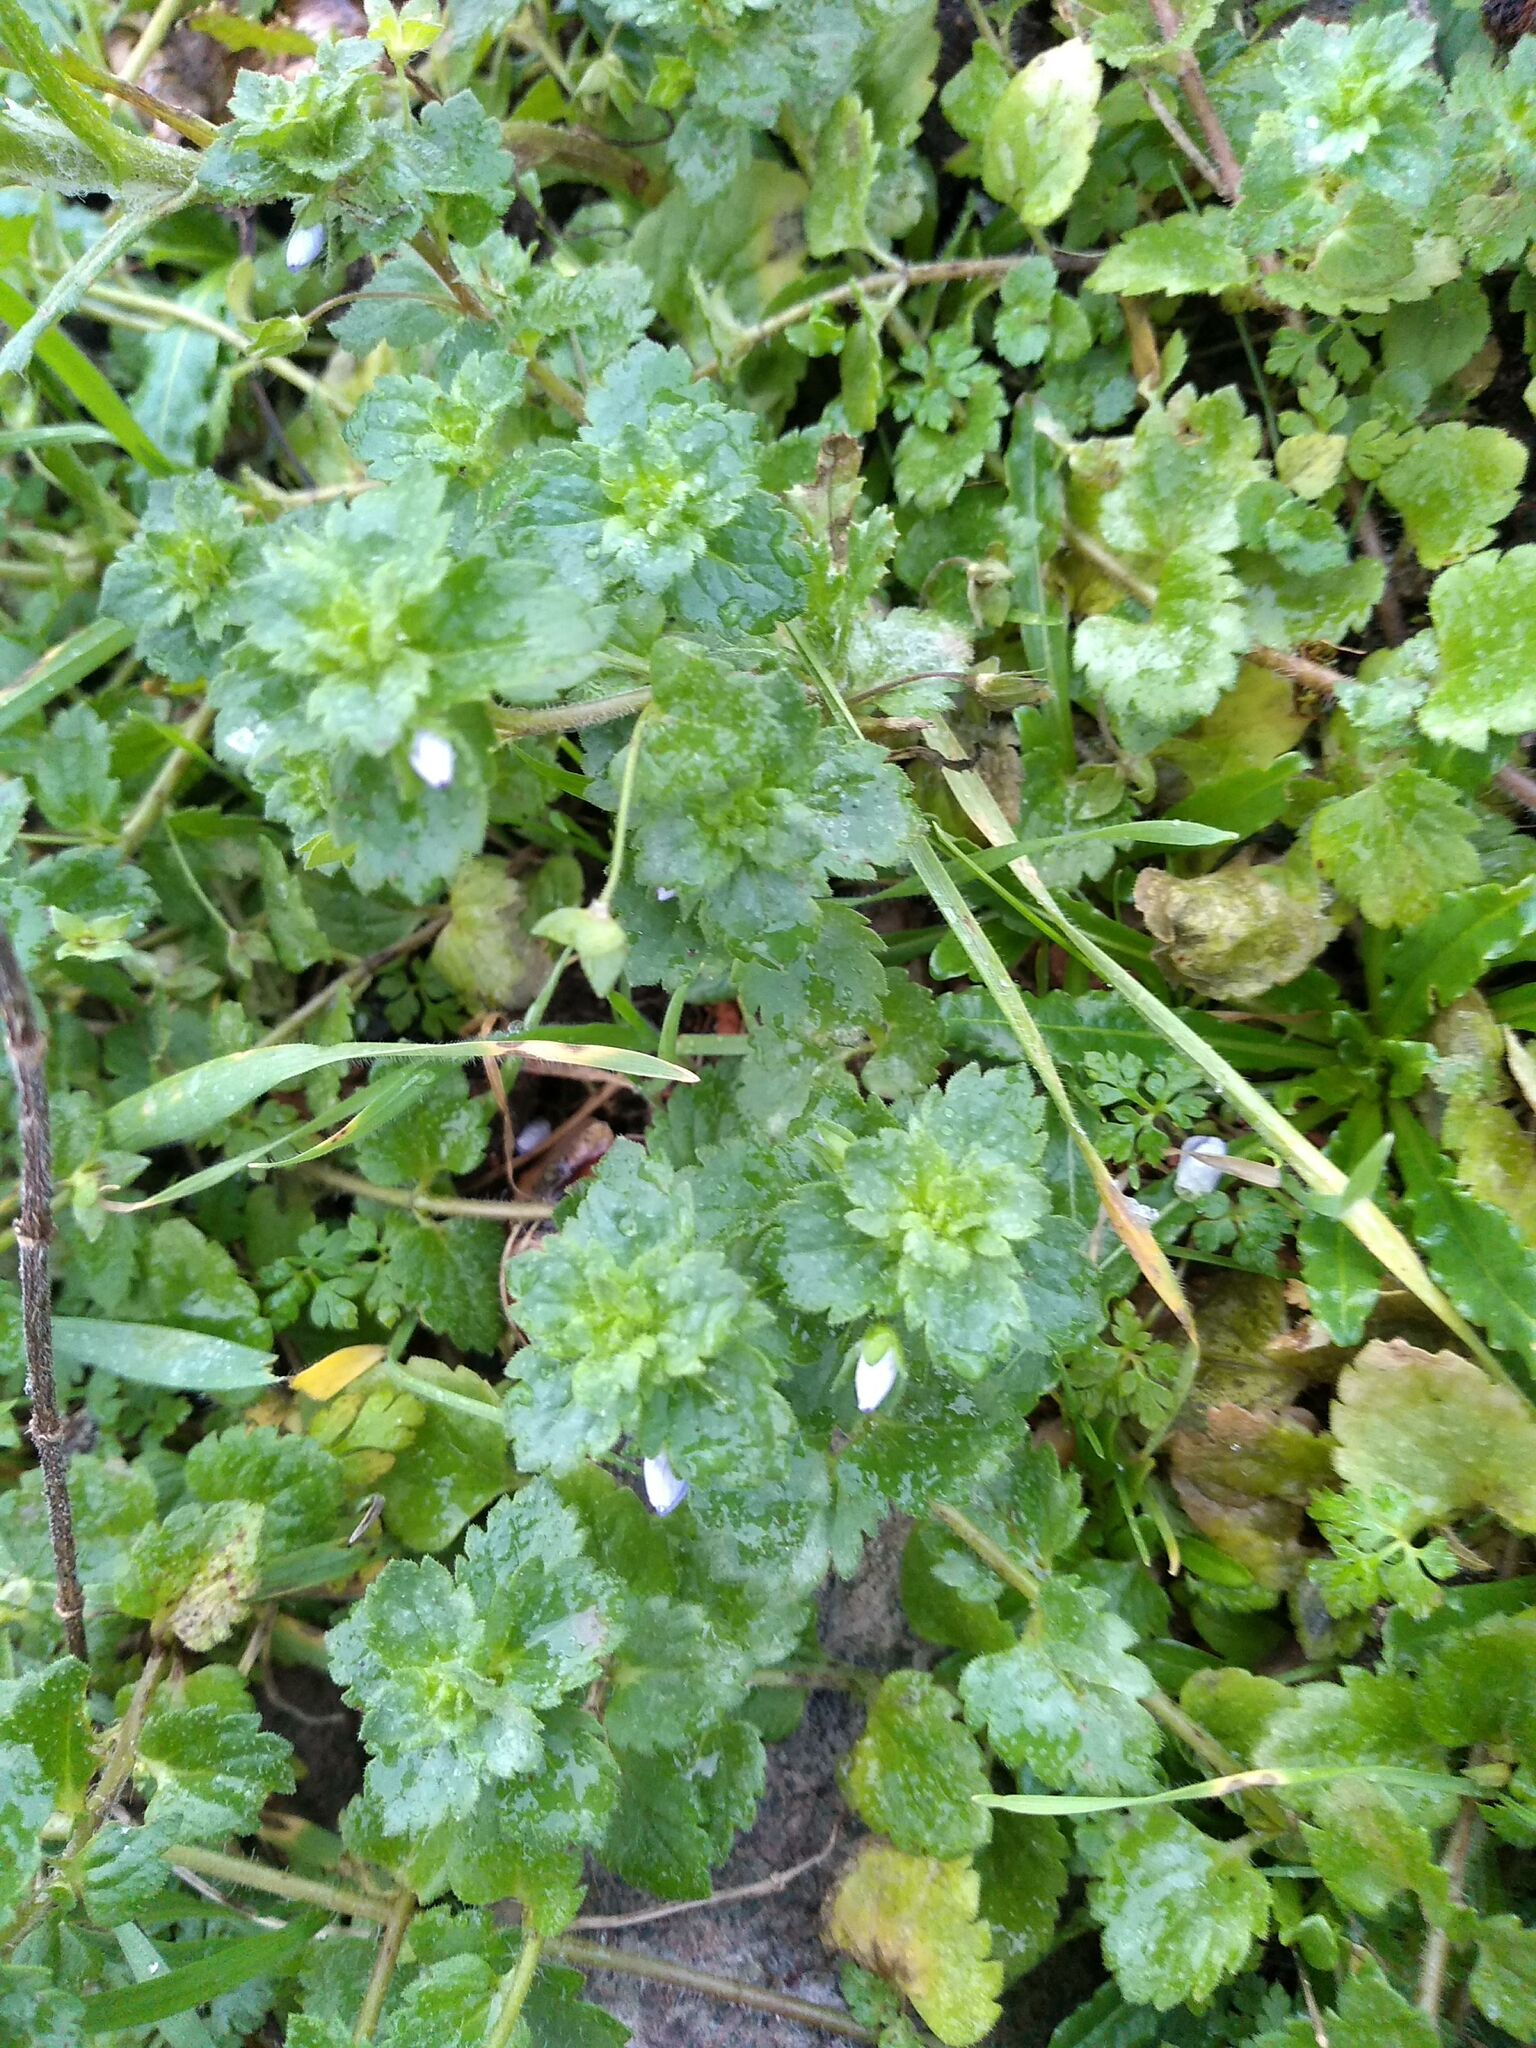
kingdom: Plantae
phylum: Tracheophyta
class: Magnoliopsida
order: Lamiales
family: Plantaginaceae
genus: Veronica
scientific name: Veronica persica
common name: Common field-speedwell
